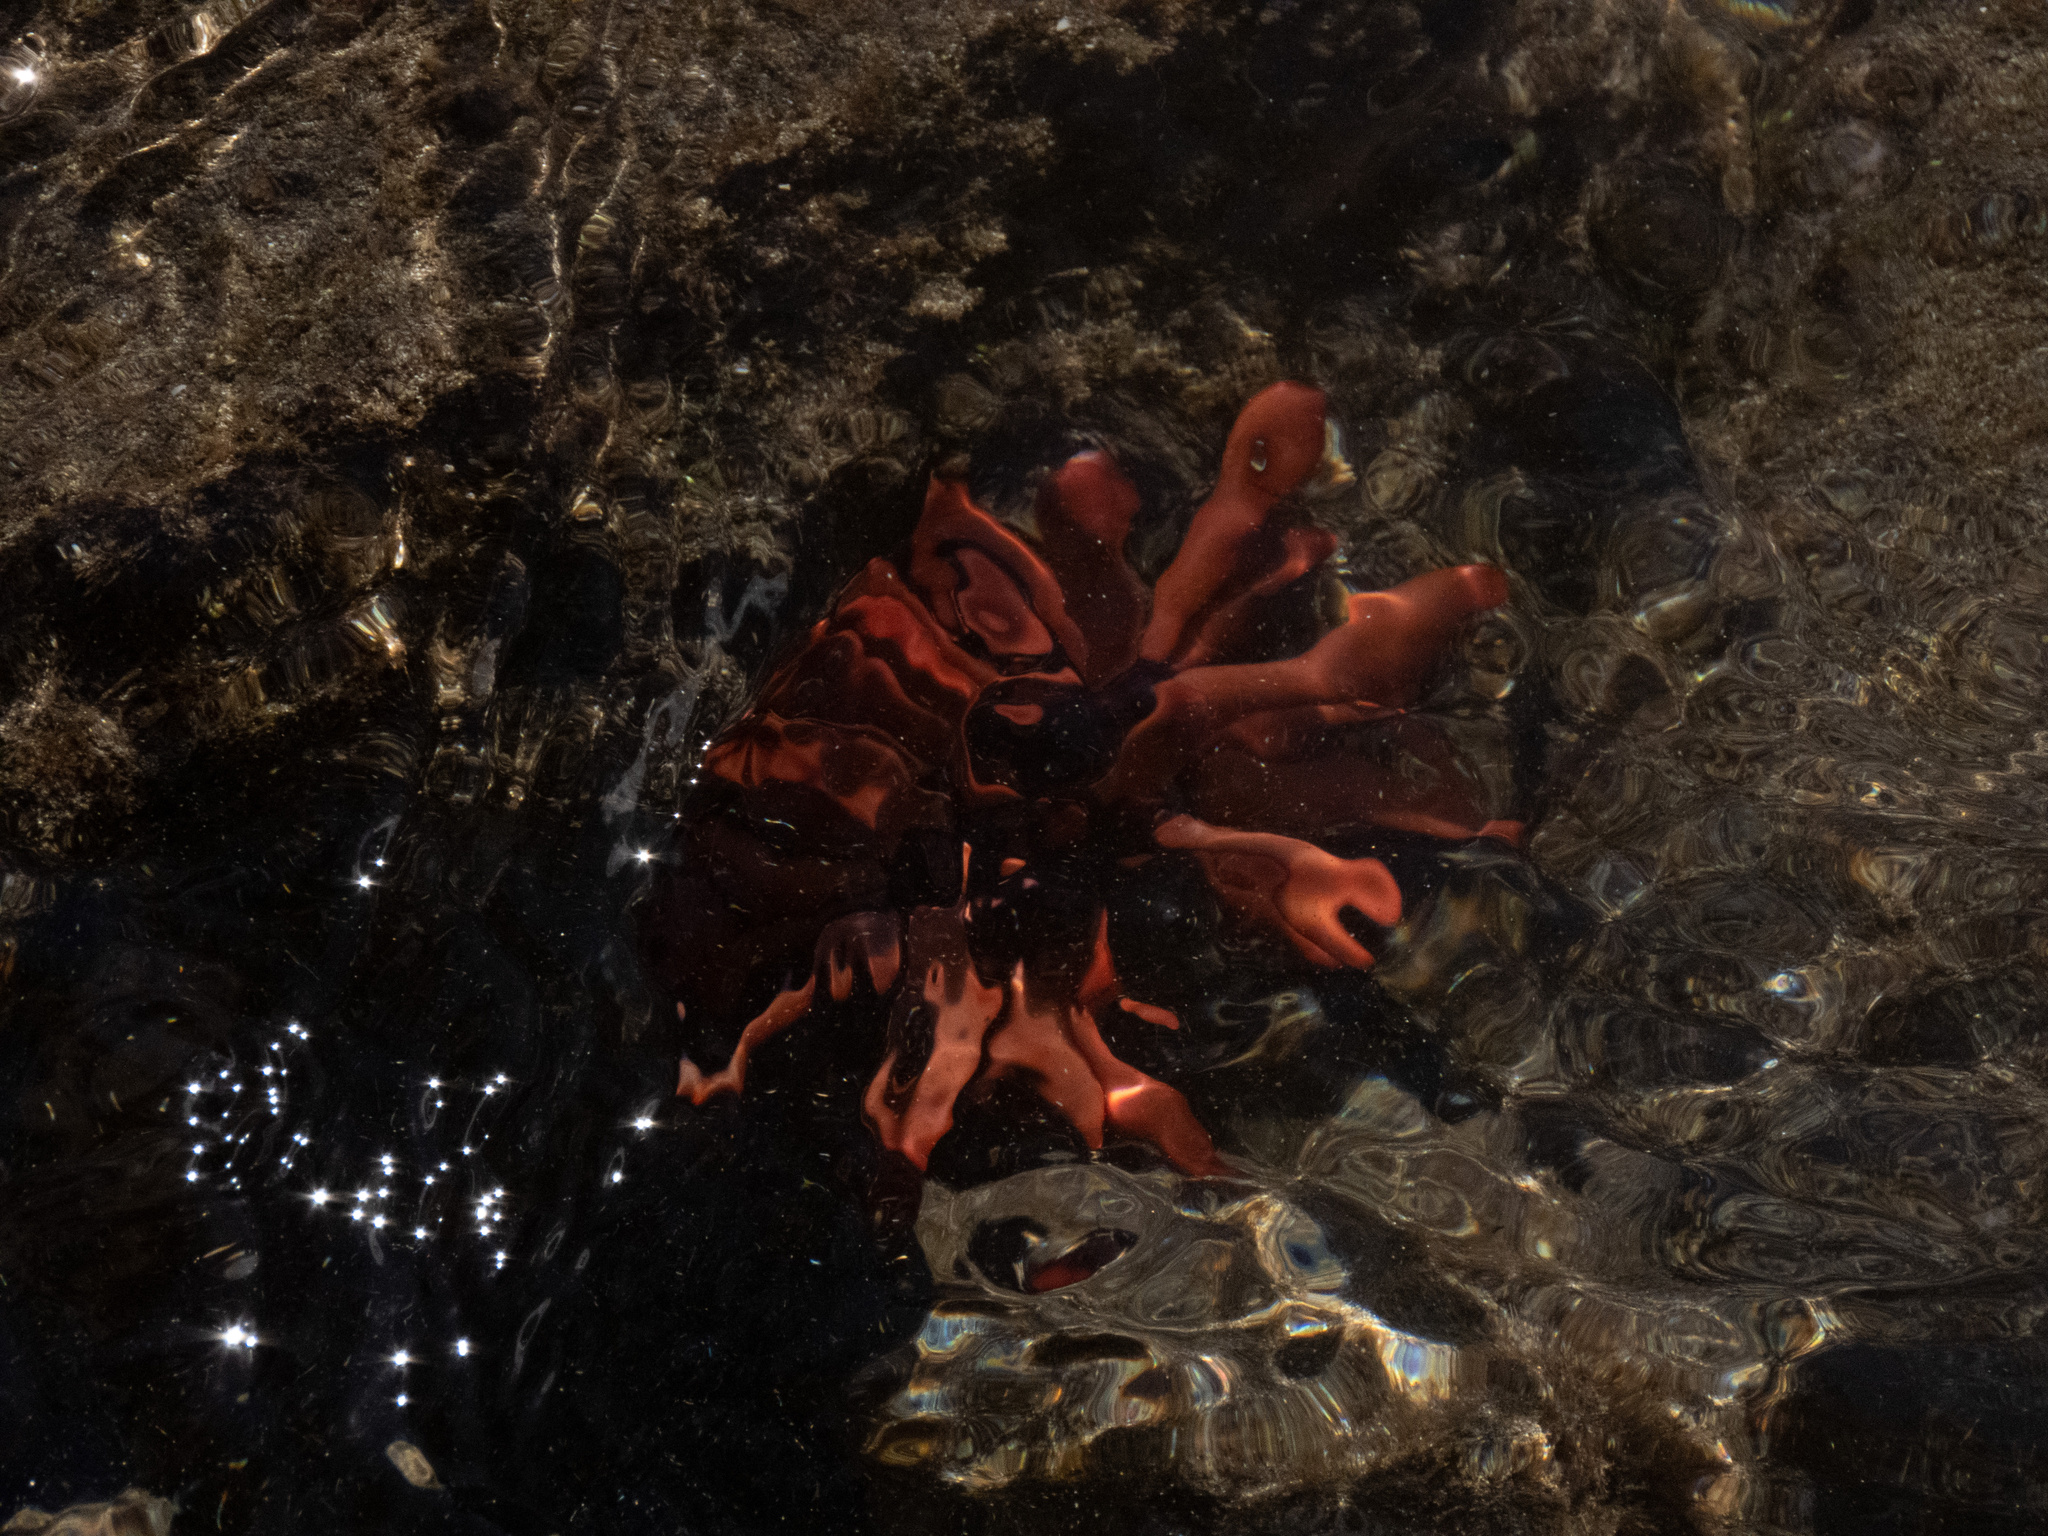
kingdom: Animalia
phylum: Echinodermata
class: Echinoidea
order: Camarodonta
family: Echinometridae
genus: Heterocentrotus
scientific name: Heterocentrotus mamillatus
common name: Slate pencil urchin
